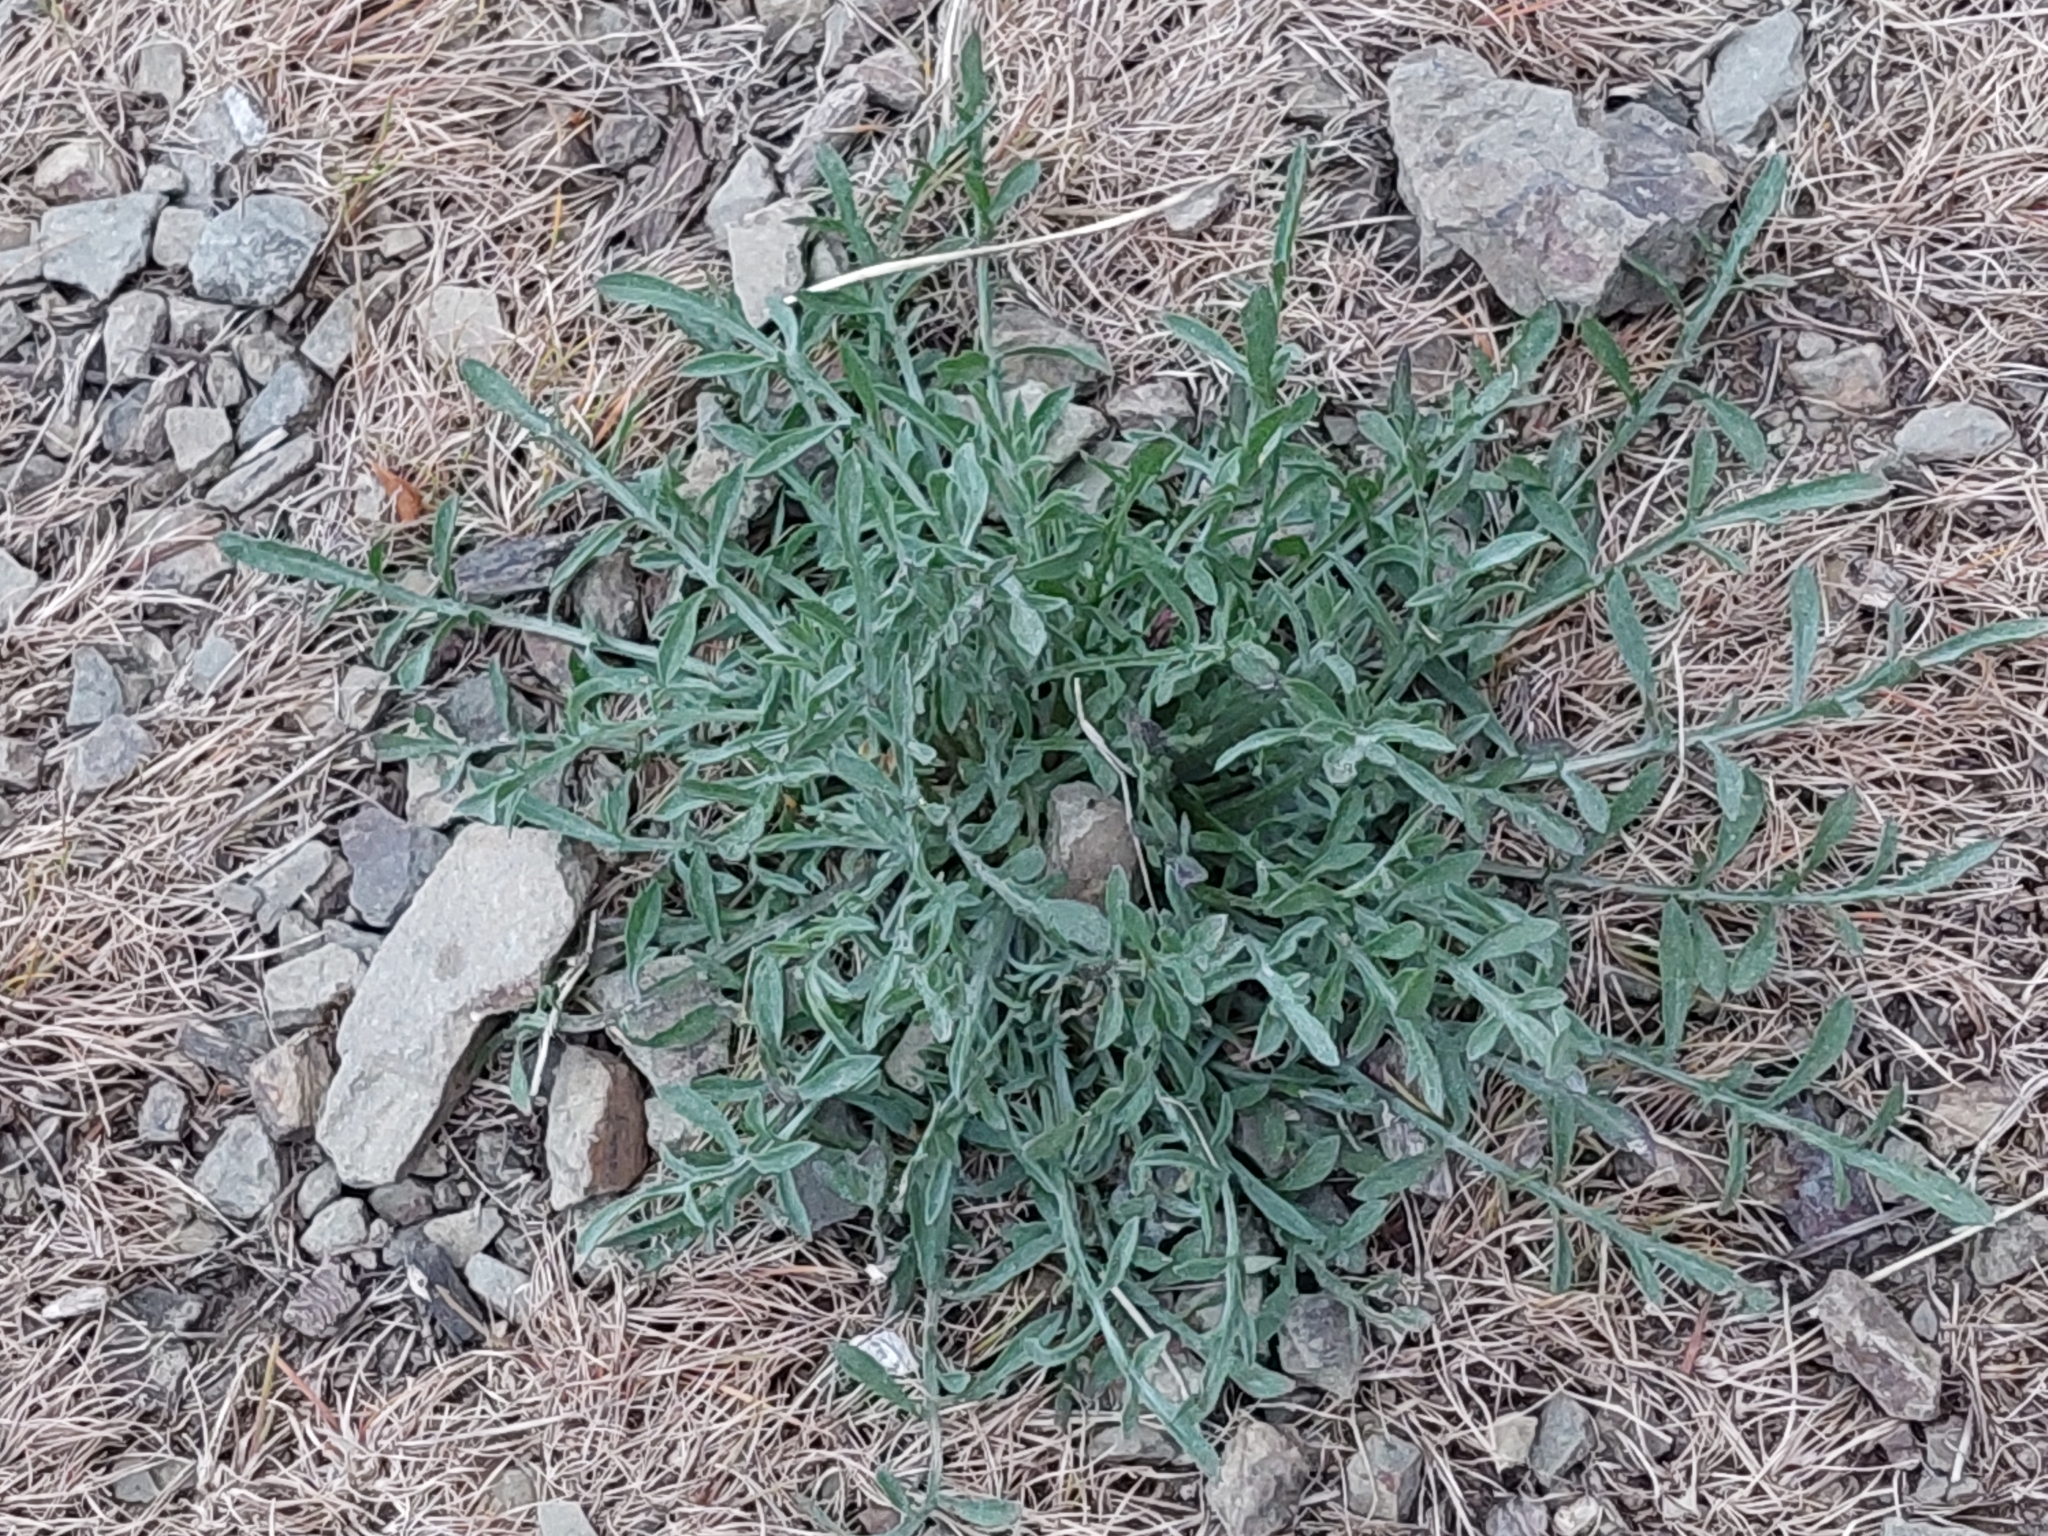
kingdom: Plantae
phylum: Tracheophyta
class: Magnoliopsida
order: Asterales
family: Asteraceae
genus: Centaurea
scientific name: Centaurea stoebe
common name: Spotted knapweed
